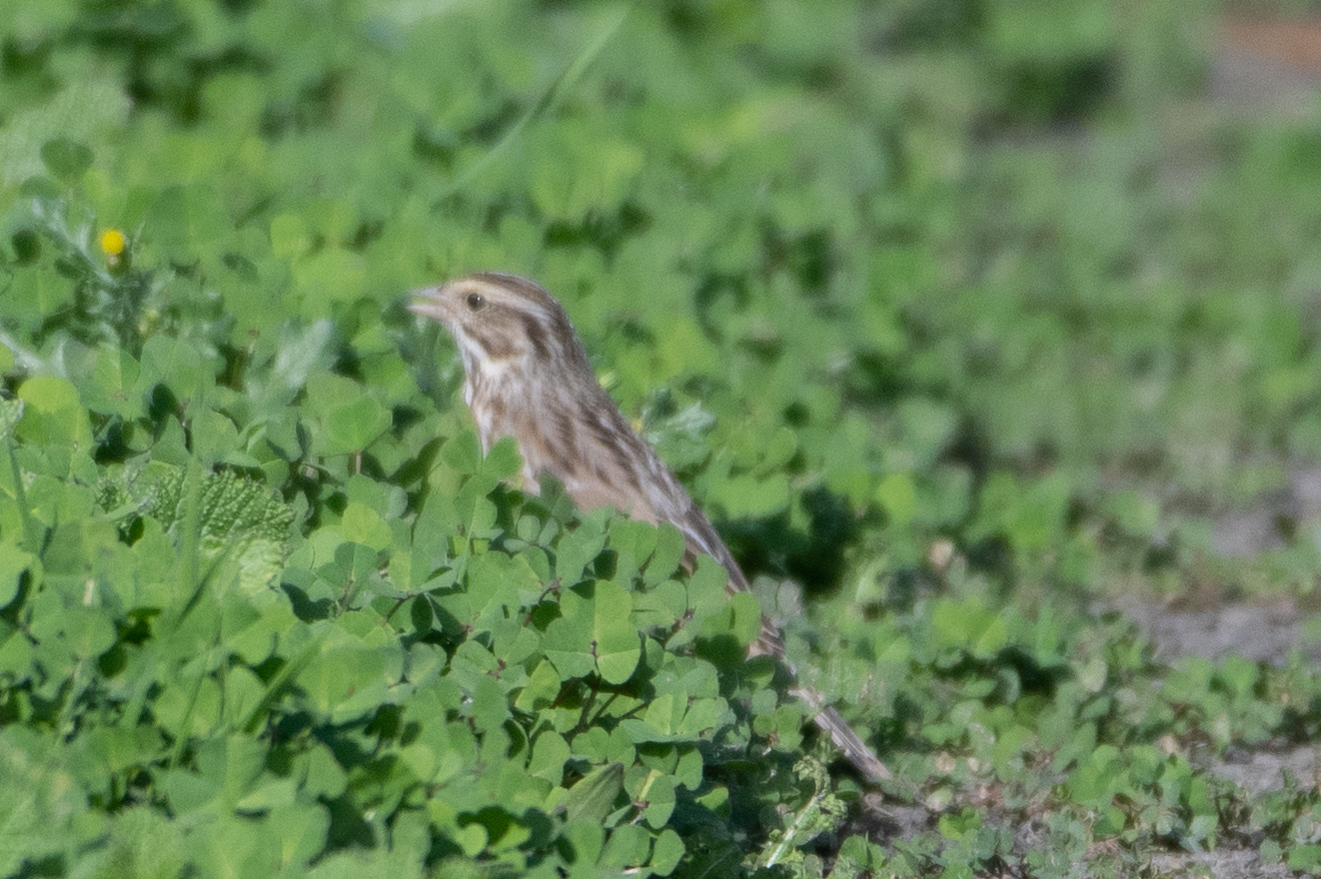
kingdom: Animalia
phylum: Chordata
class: Aves
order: Passeriformes
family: Passerellidae
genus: Passerculus
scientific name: Passerculus sandwichensis
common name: Savannah sparrow
